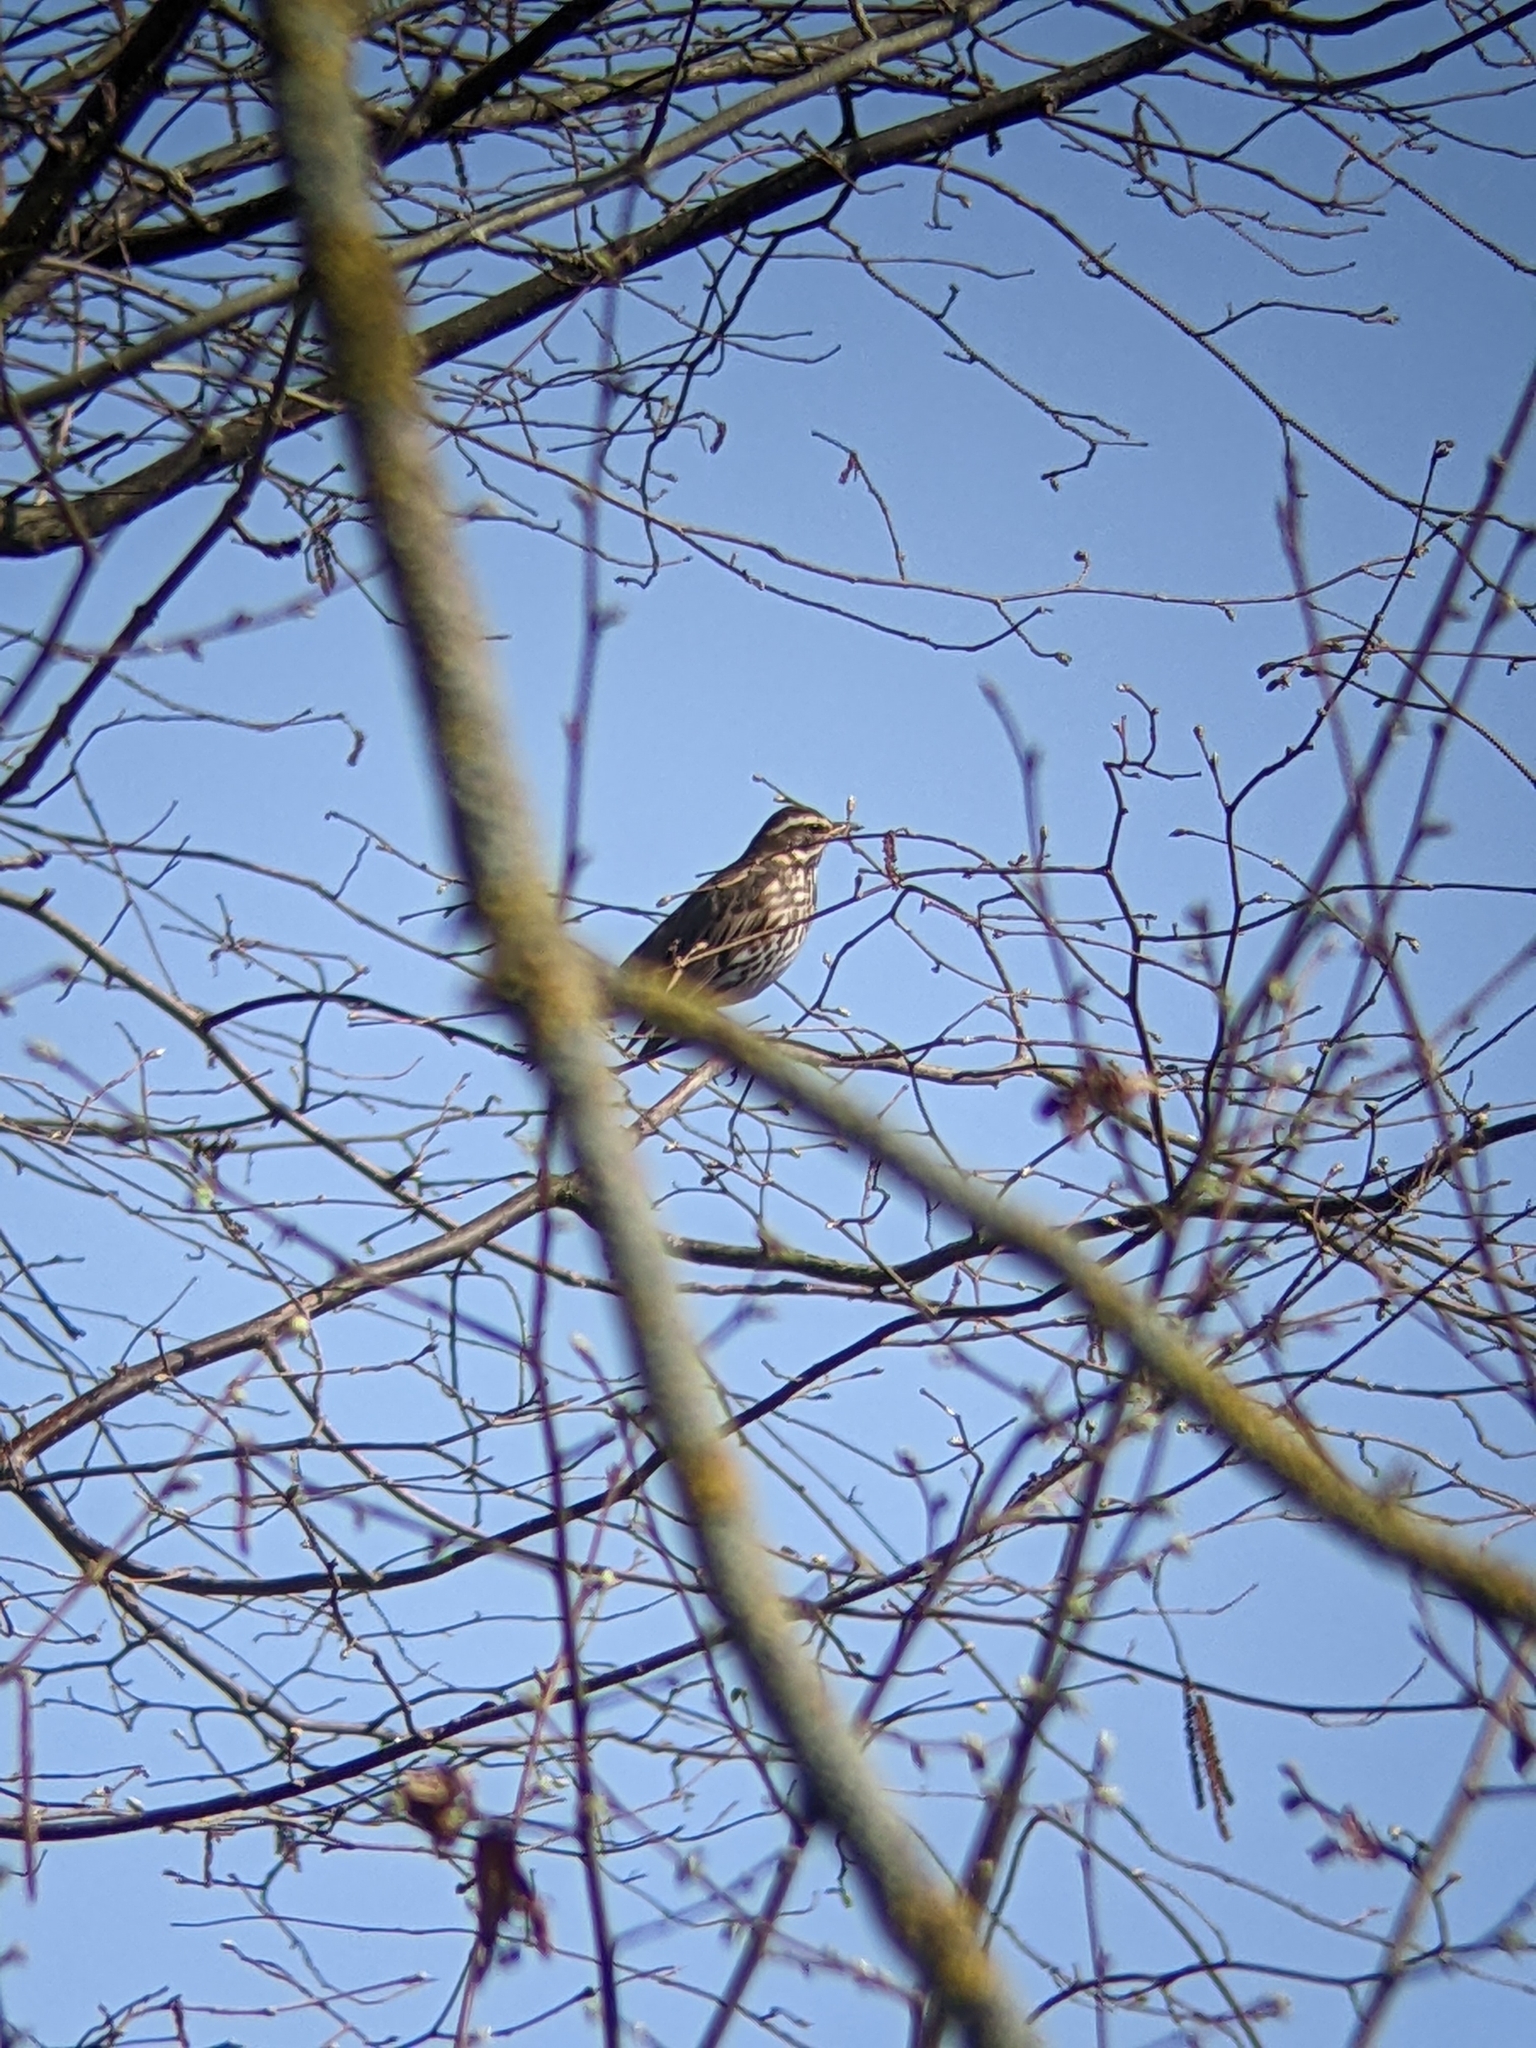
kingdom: Animalia
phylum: Chordata
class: Aves
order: Passeriformes
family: Turdidae
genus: Turdus
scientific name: Turdus iliacus
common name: Redwing
